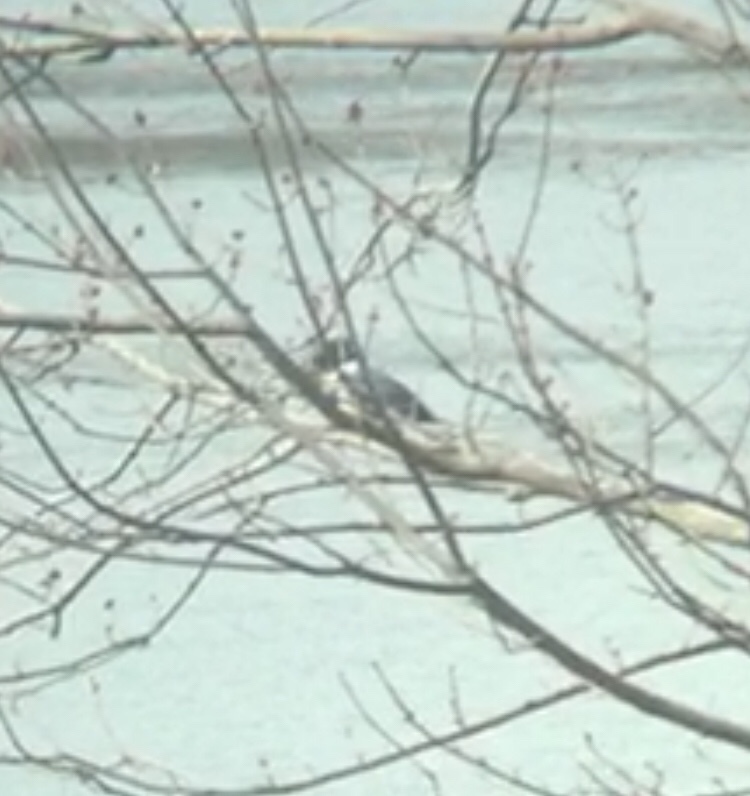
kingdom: Animalia
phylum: Chordata
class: Aves
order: Coraciiformes
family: Alcedinidae
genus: Megaceryle
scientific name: Megaceryle alcyon
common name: Belted kingfisher
